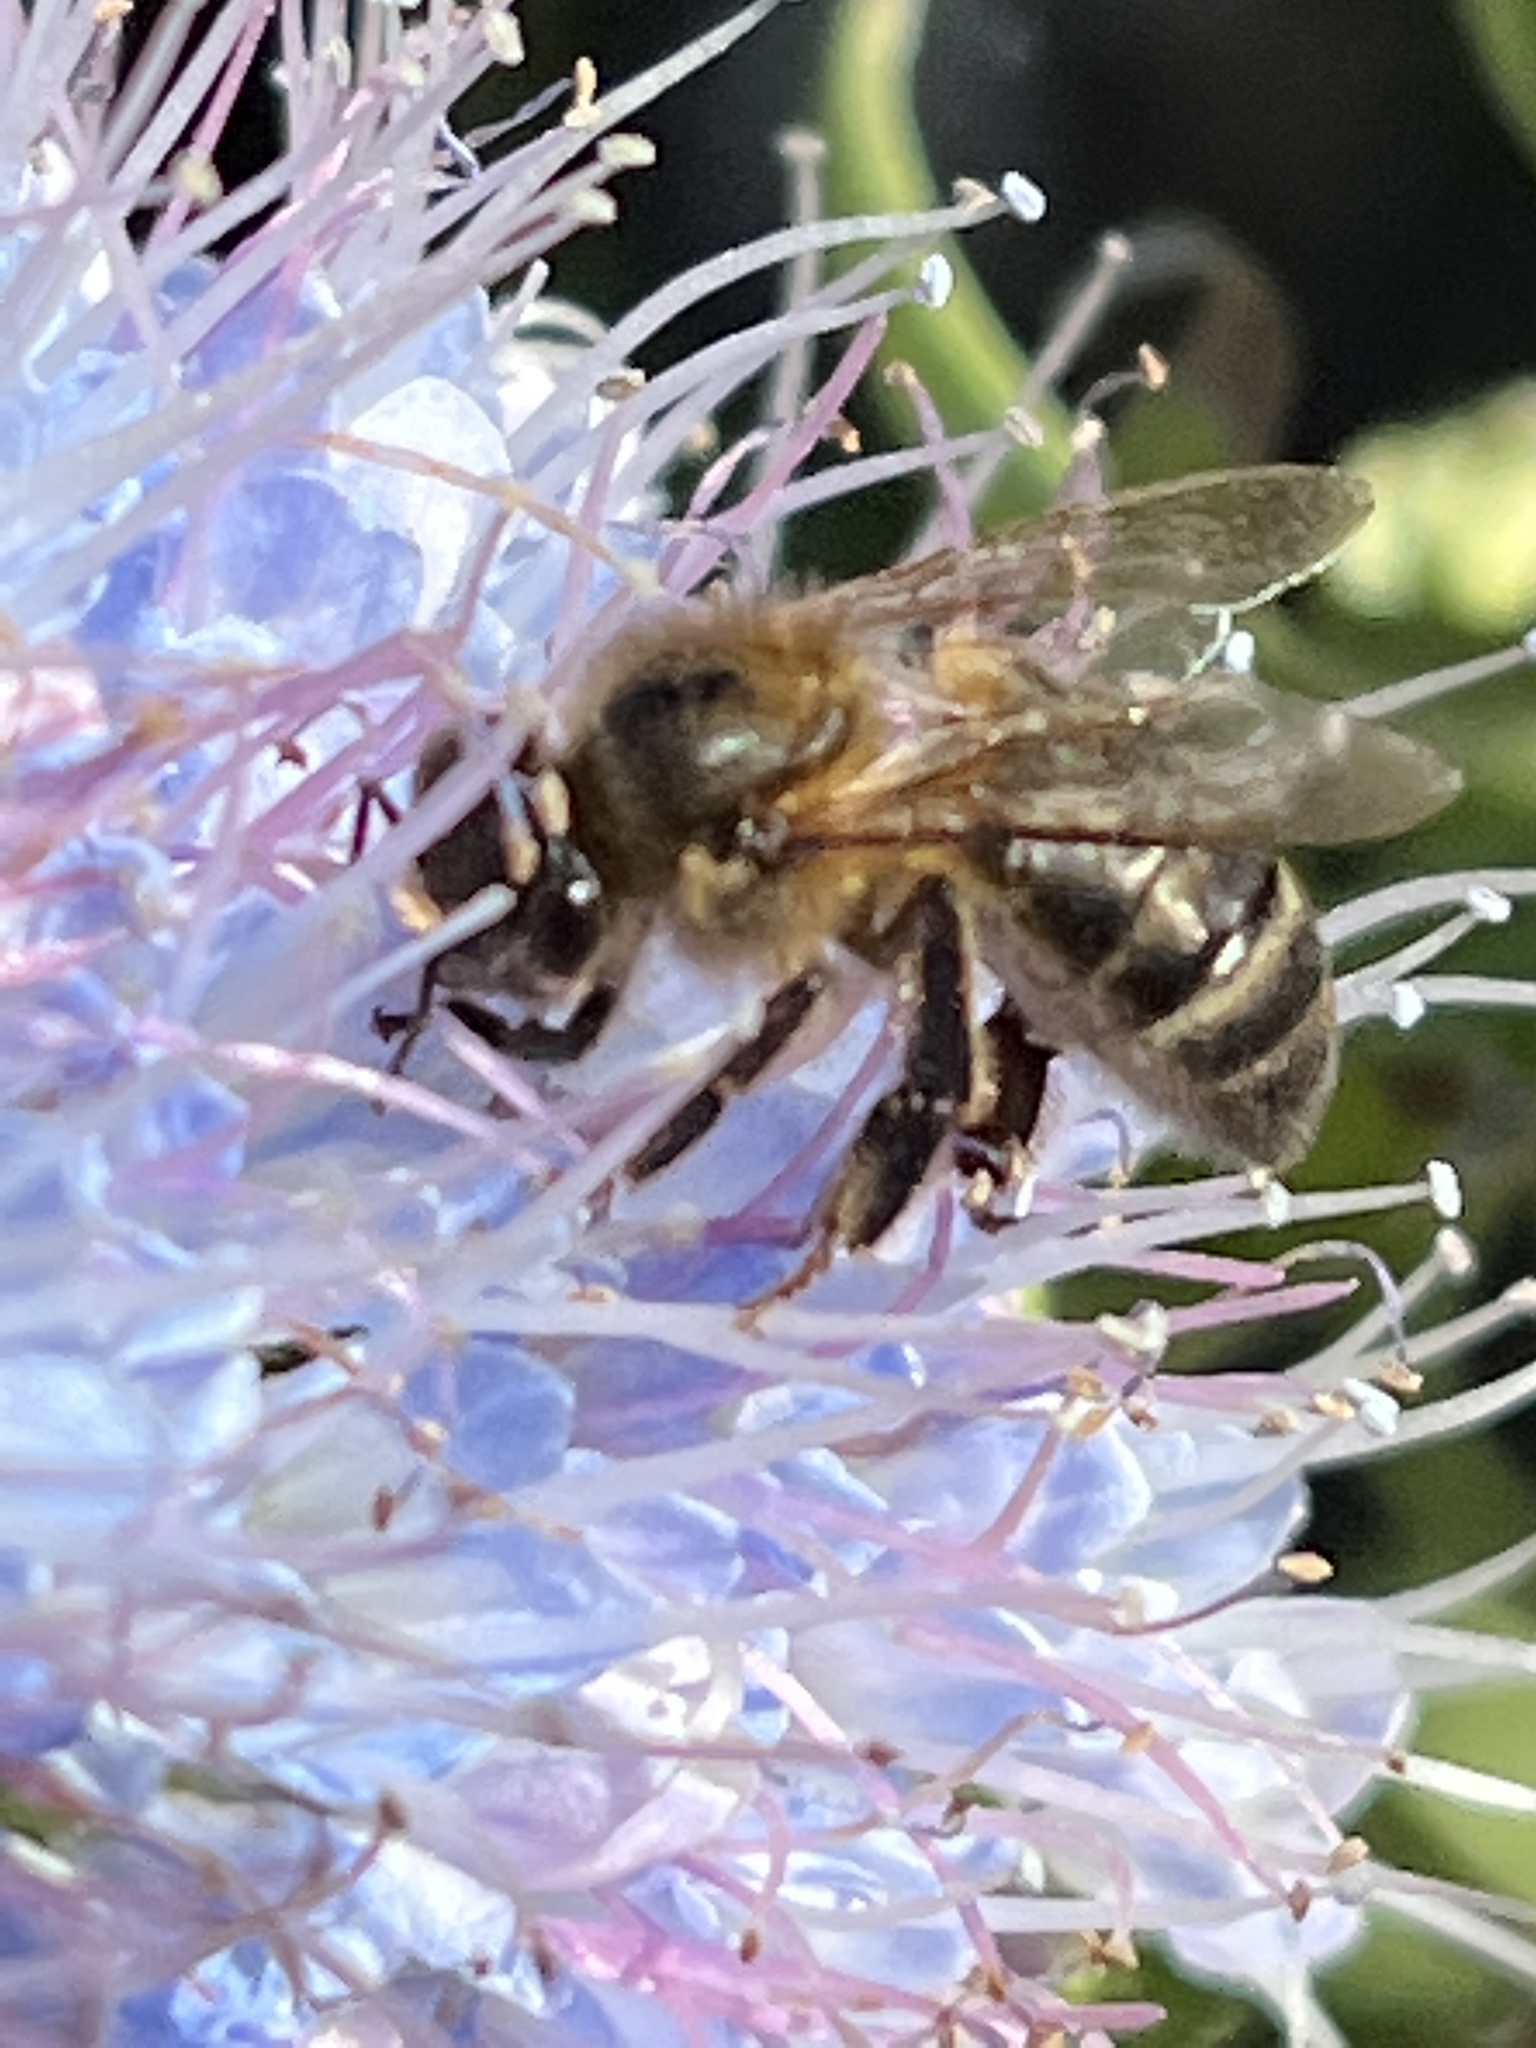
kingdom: Animalia
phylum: Arthropoda
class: Insecta
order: Hymenoptera
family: Apidae
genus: Apis
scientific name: Apis mellifera
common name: Honey bee
